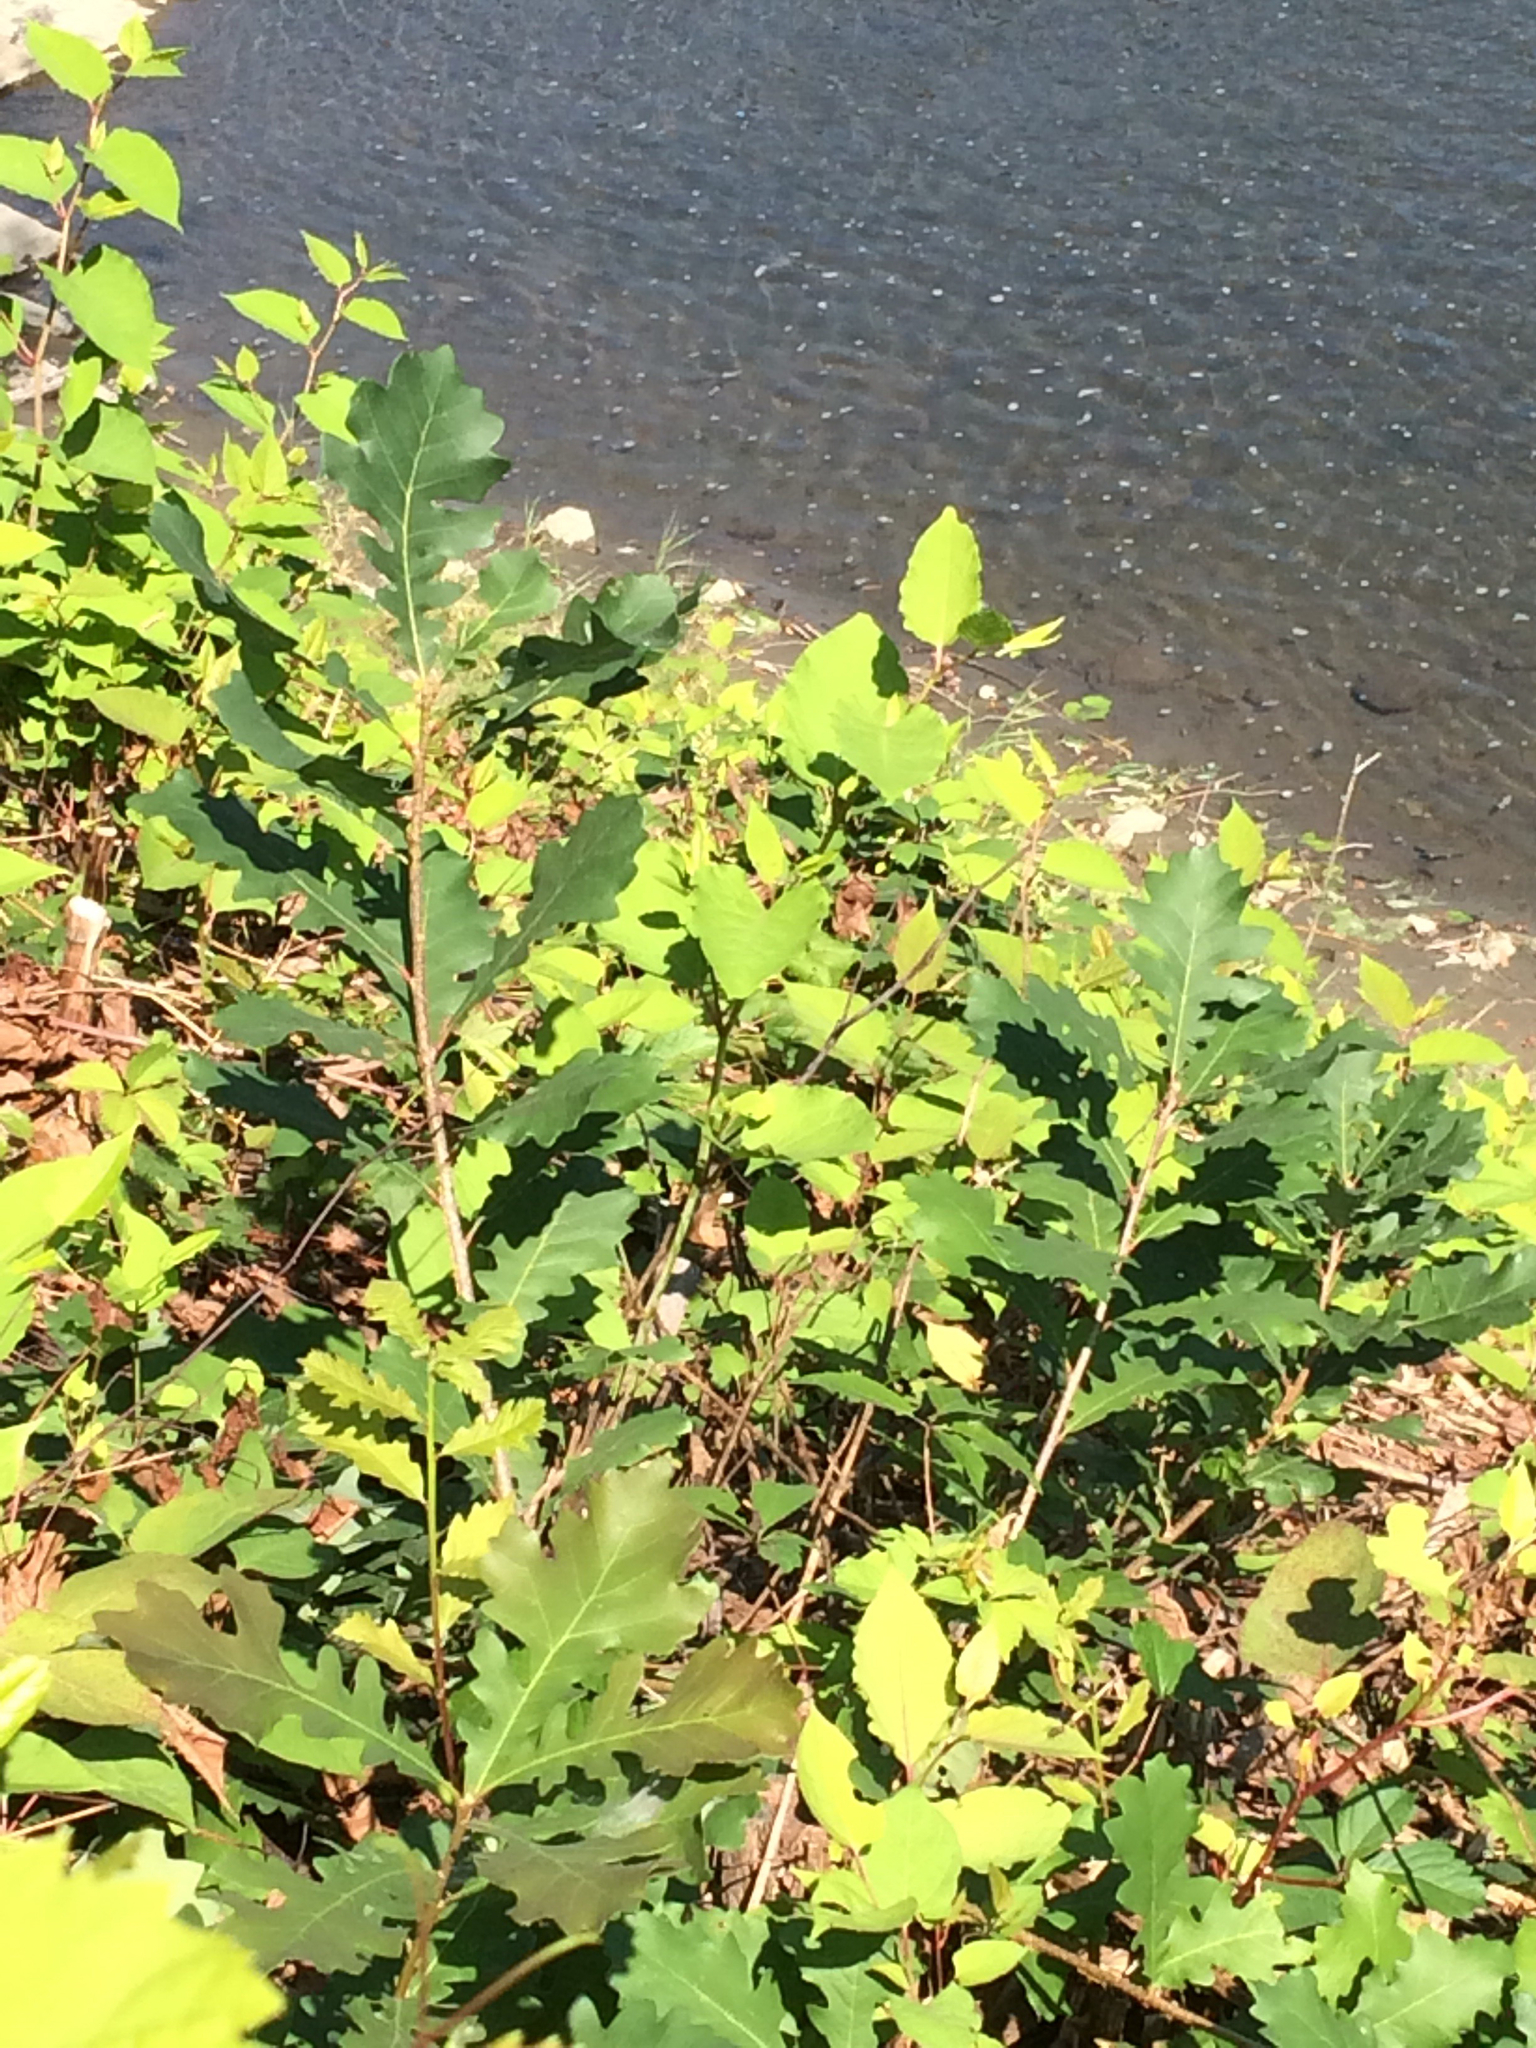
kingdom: Plantae
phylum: Tracheophyta
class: Magnoliopsida
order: Fagales
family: Fagaceae
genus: Quercus
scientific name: Quercus macrocarpa
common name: Bur oak
